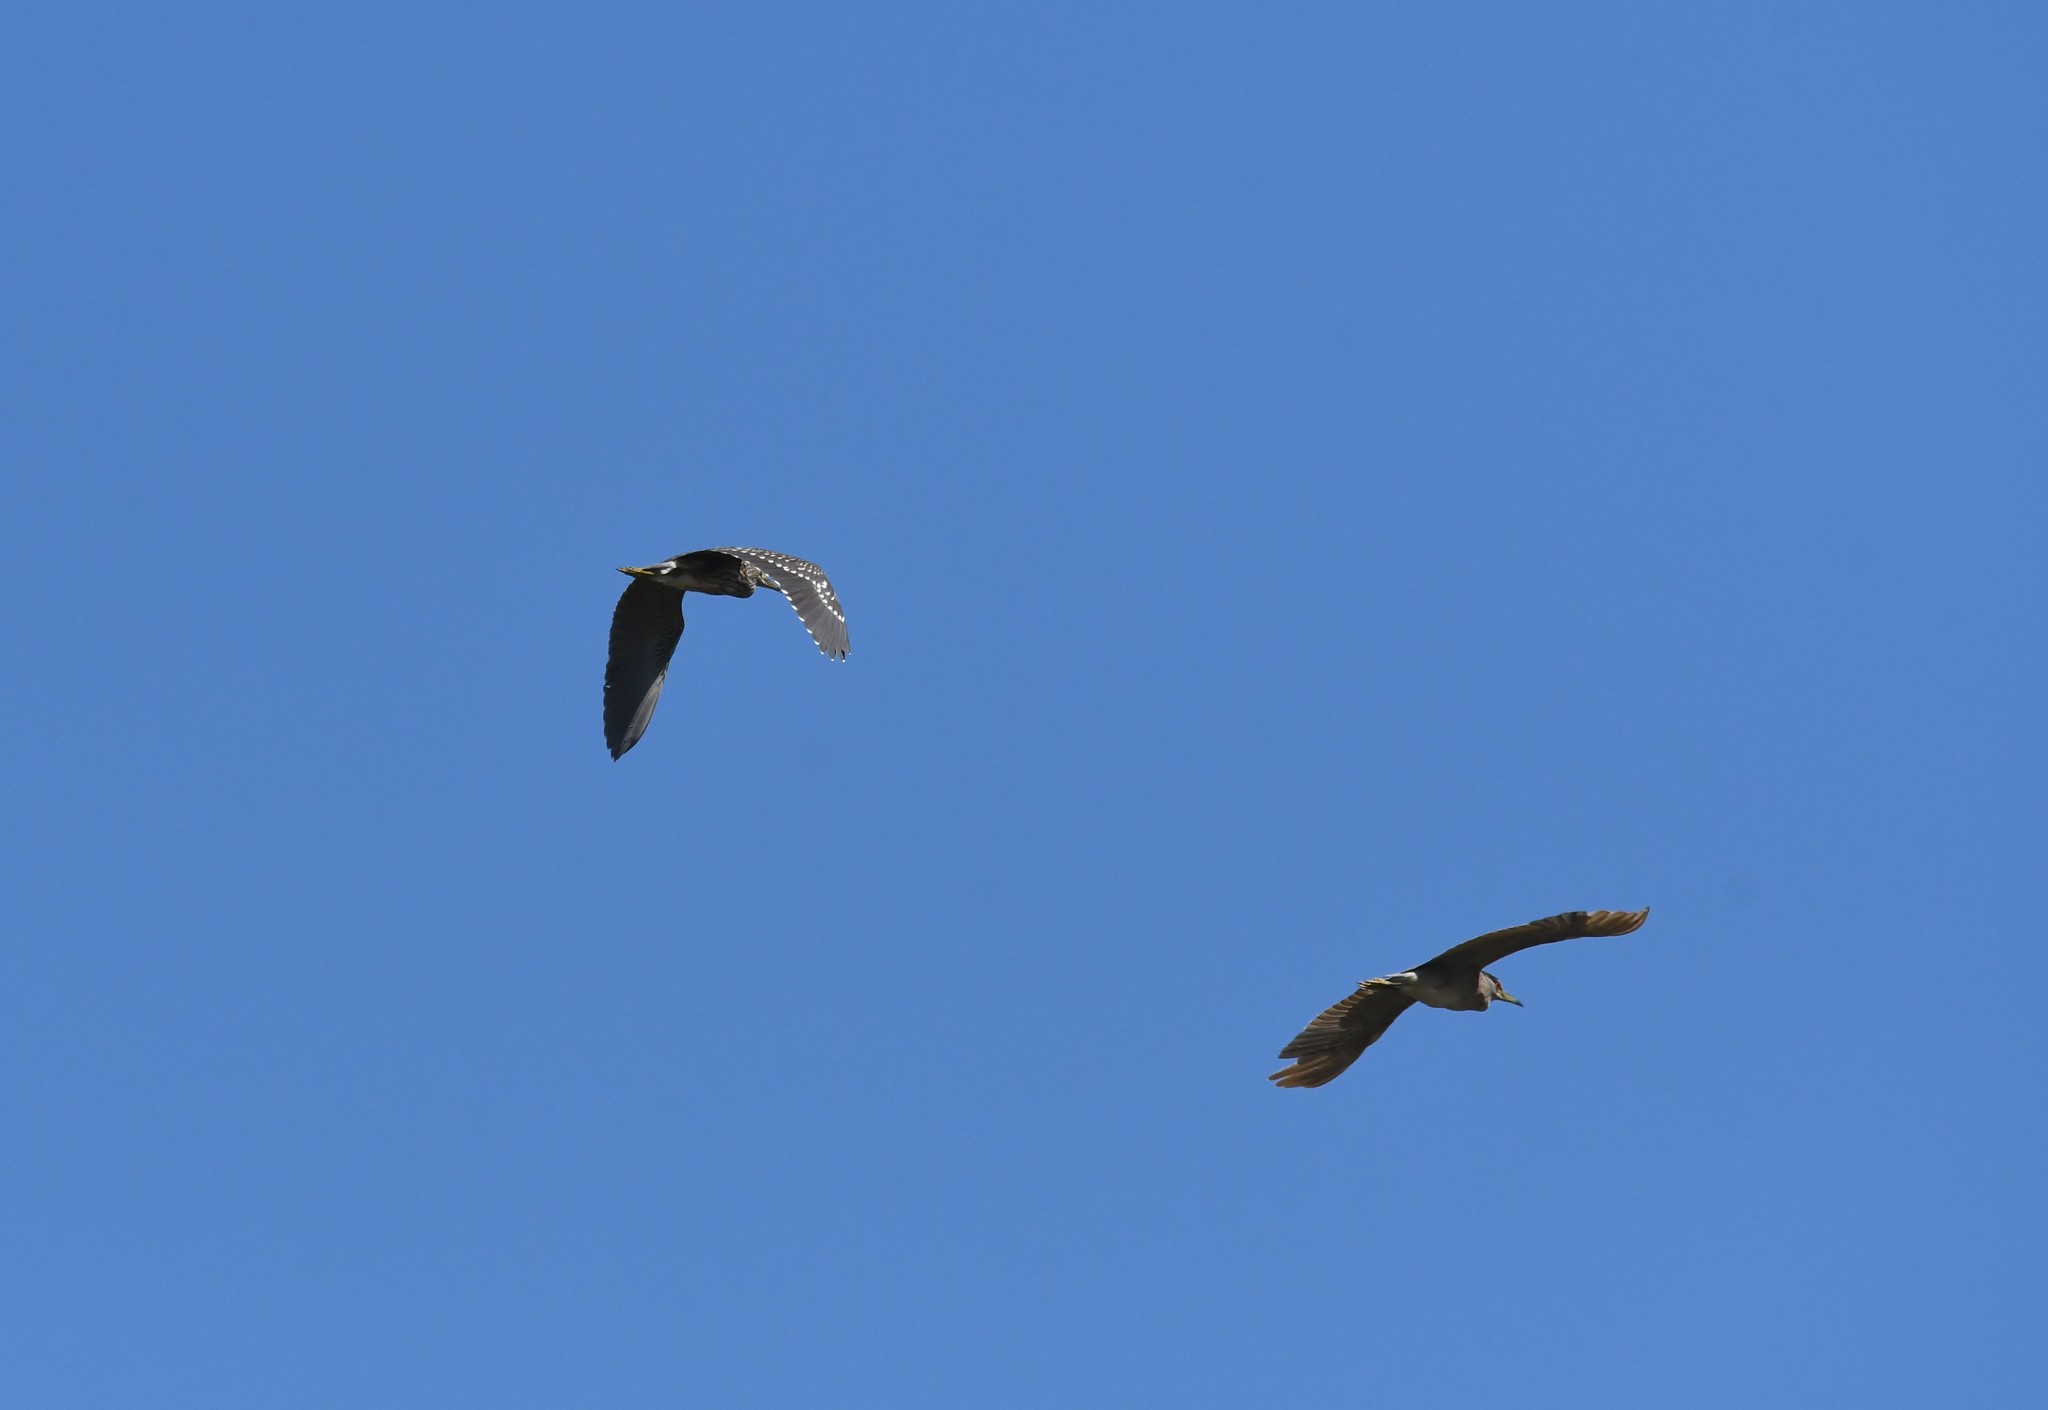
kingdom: Animalia
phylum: Chordata
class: Aves
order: Pelecaniformes
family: Ardeidae
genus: Nycticorax
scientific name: Nycticorax nycticorax
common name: Black-crowned night heron
